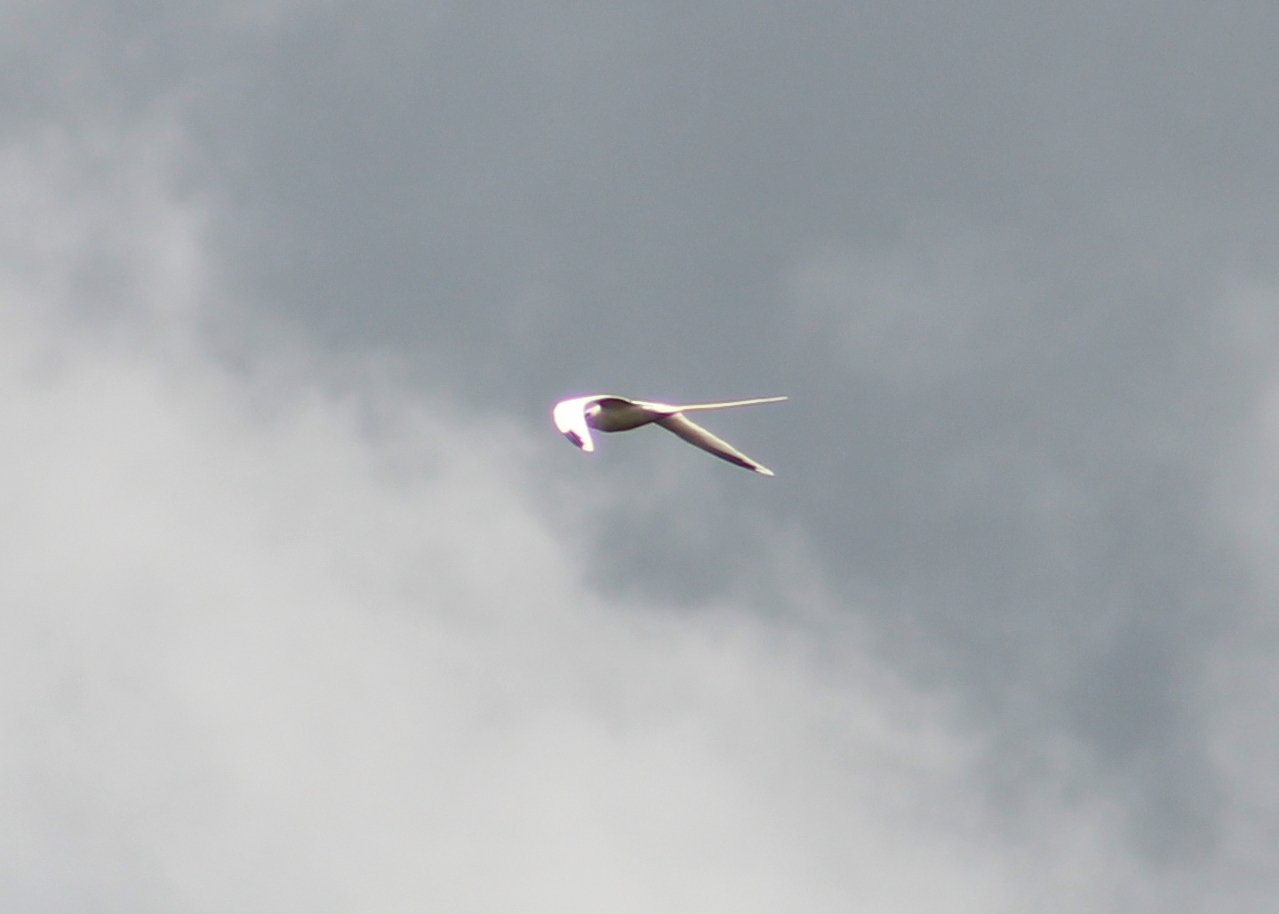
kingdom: Animalia
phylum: Chordata
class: Aves
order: Phaethontiformes
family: Phaethontidae
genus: Phaethon
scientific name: Phaethon lepturus
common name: White-tailed tropicbird
